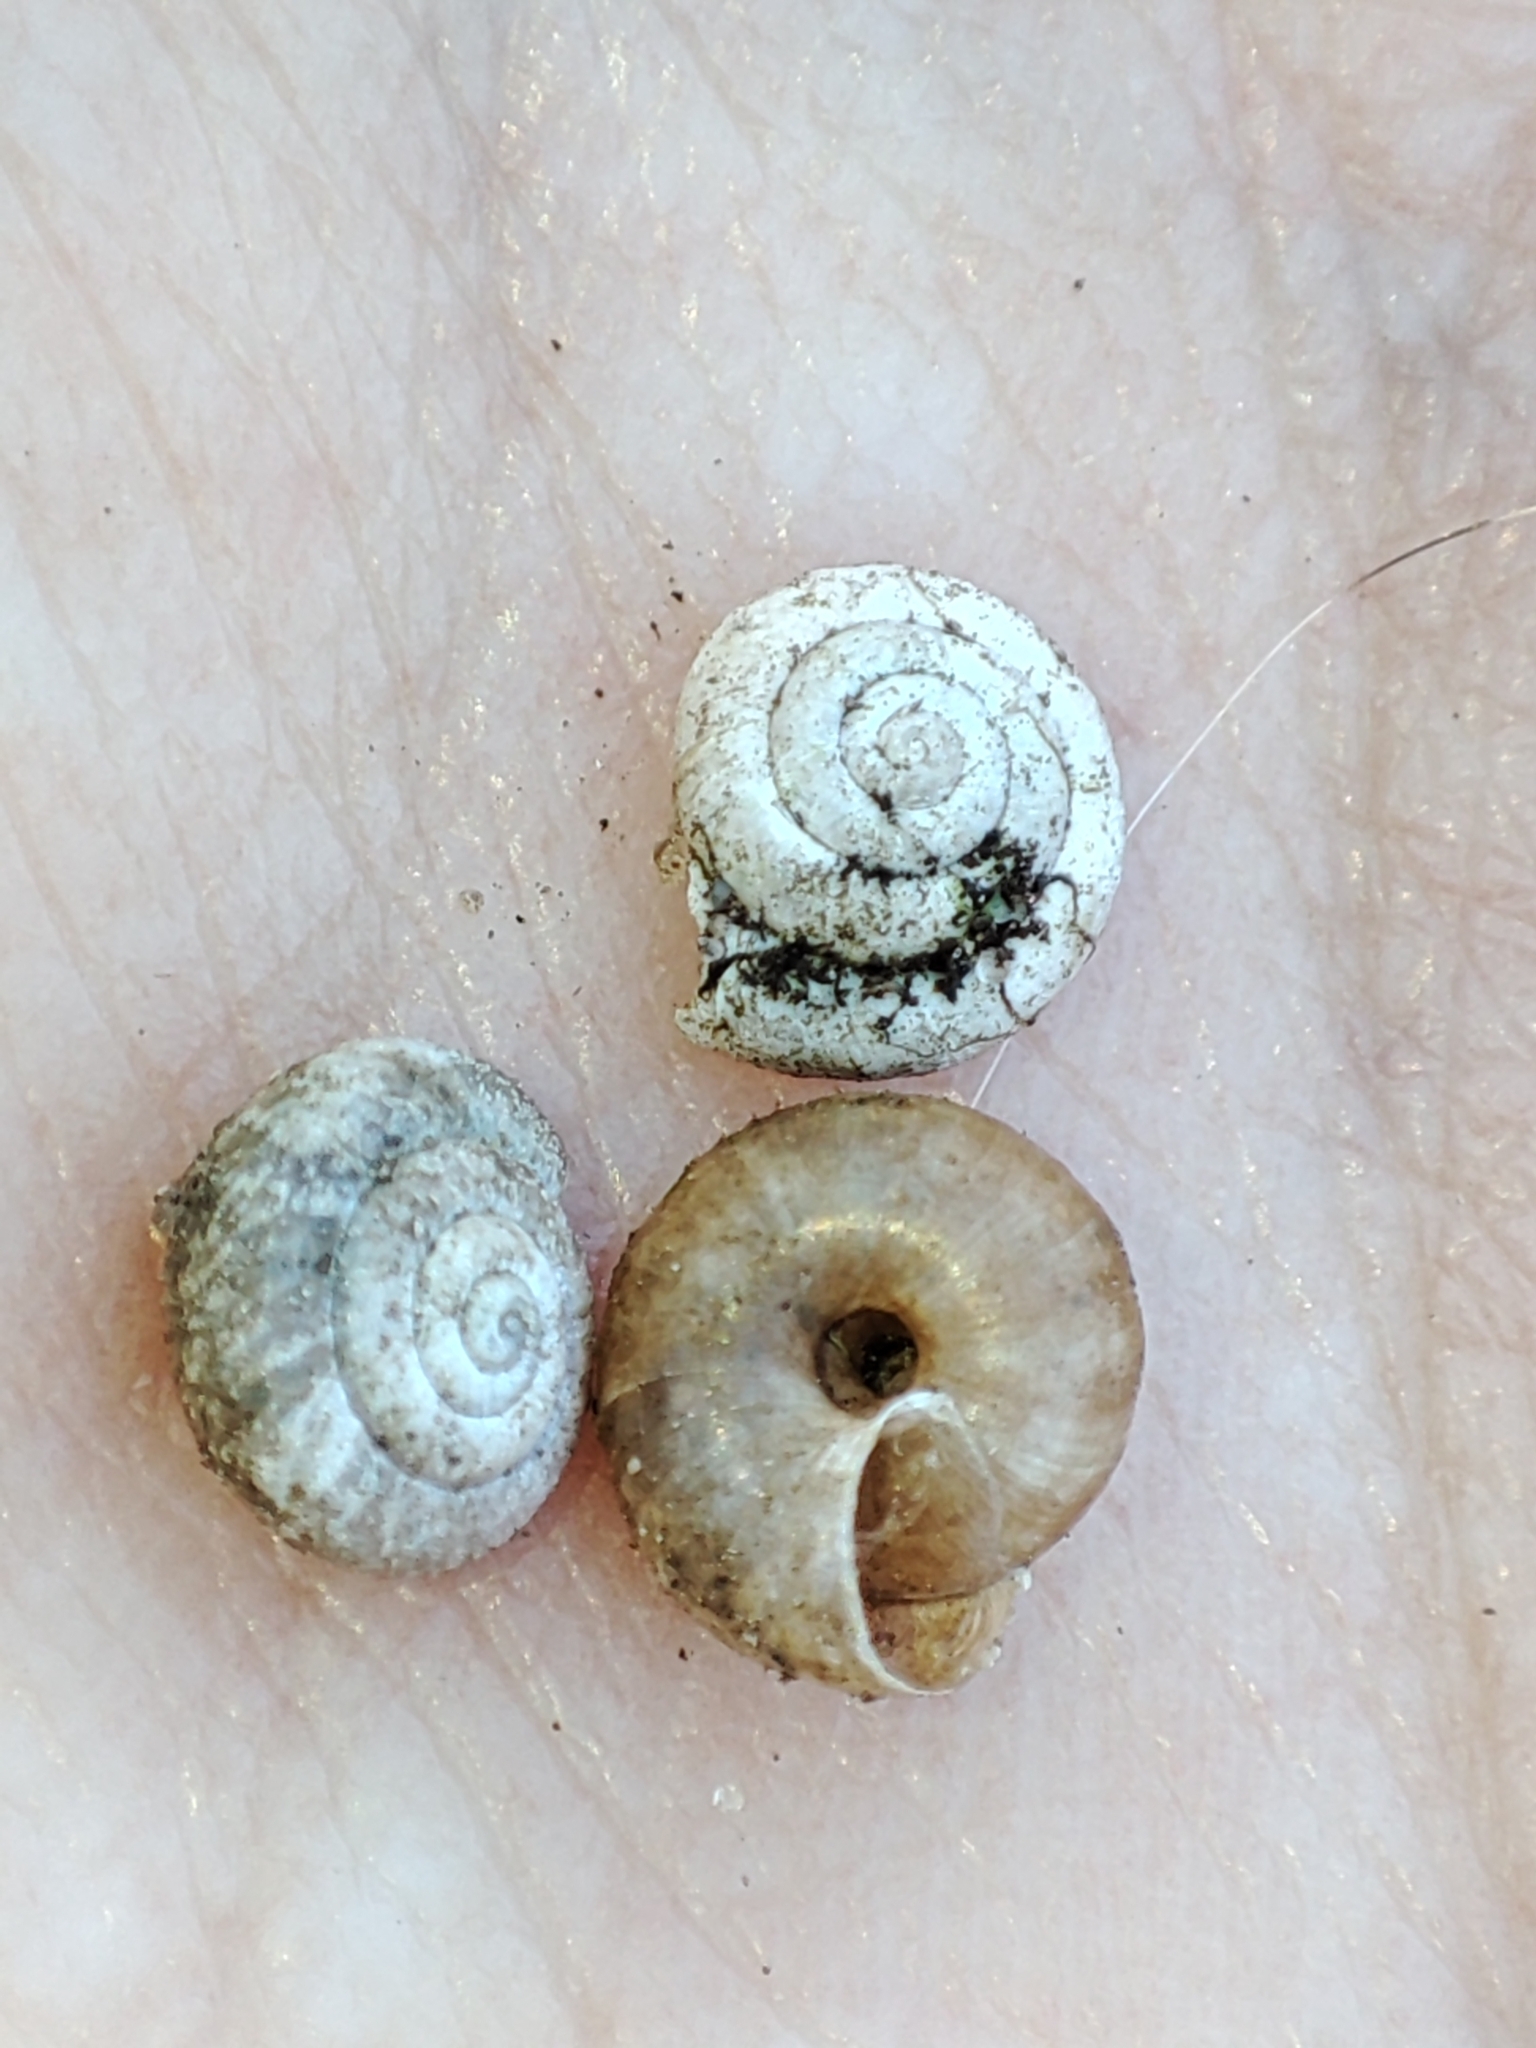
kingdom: Animalia
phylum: Mollusca
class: Gastropoda
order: Stylommatophora
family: Hygromiidae
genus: Trochulus
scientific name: Trochulus hispidus
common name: Hairy snail
